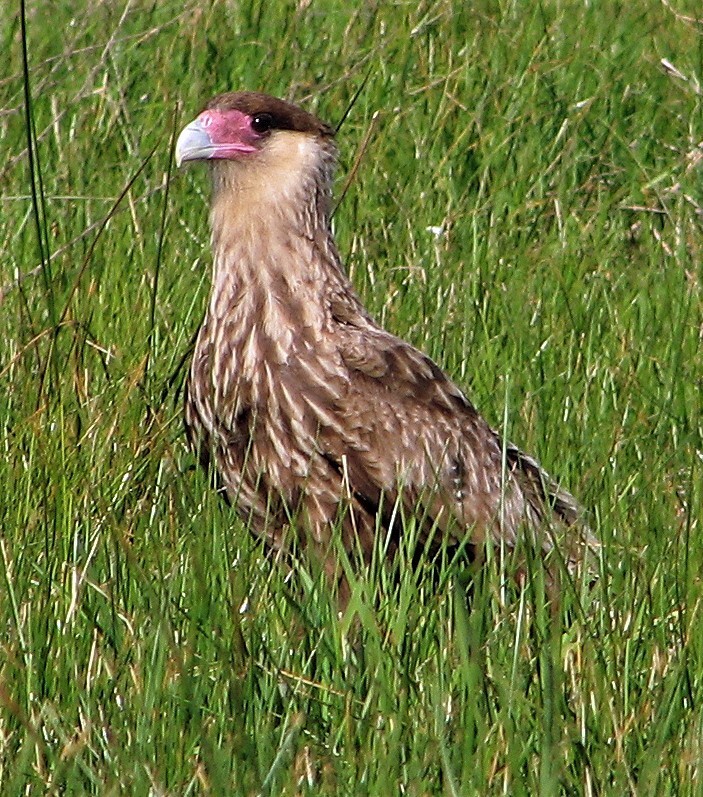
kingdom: Animalia
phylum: Chordata
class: Aves
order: Falconiformes
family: Falconidae
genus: Caracara
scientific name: Caracara plancus
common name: Southern caracara
